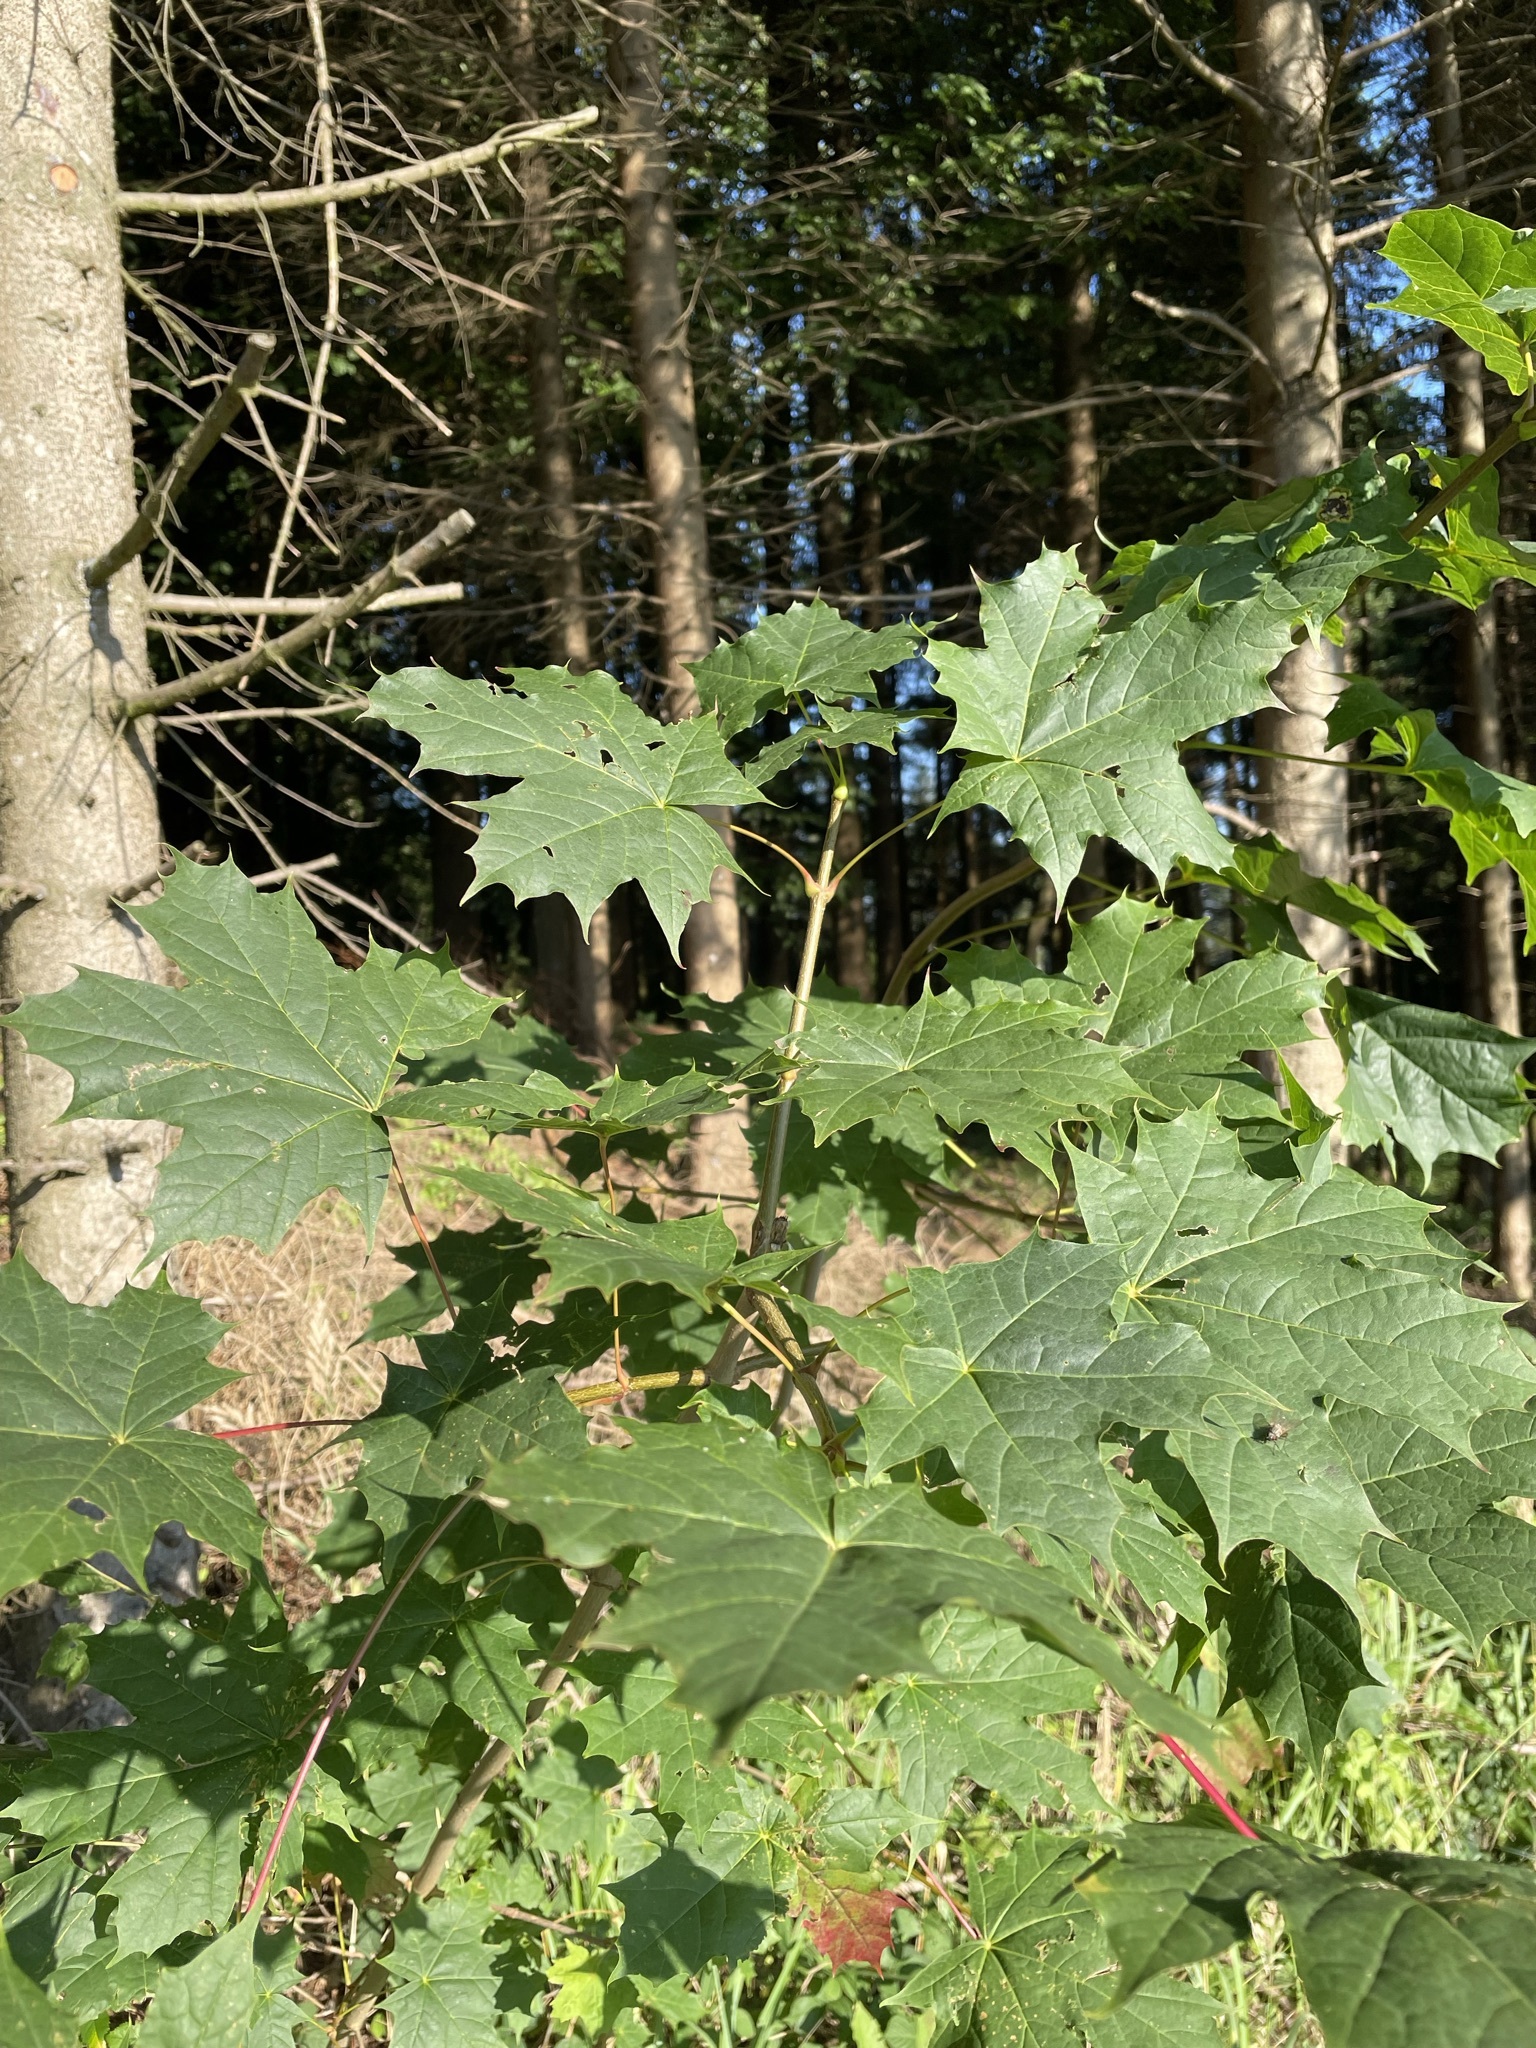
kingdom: Plantae
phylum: Tracheophyta
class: Magnoliopsida
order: Sapindales
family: Sapindaceae
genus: Acer
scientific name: Acer platanoides
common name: Norway maple
